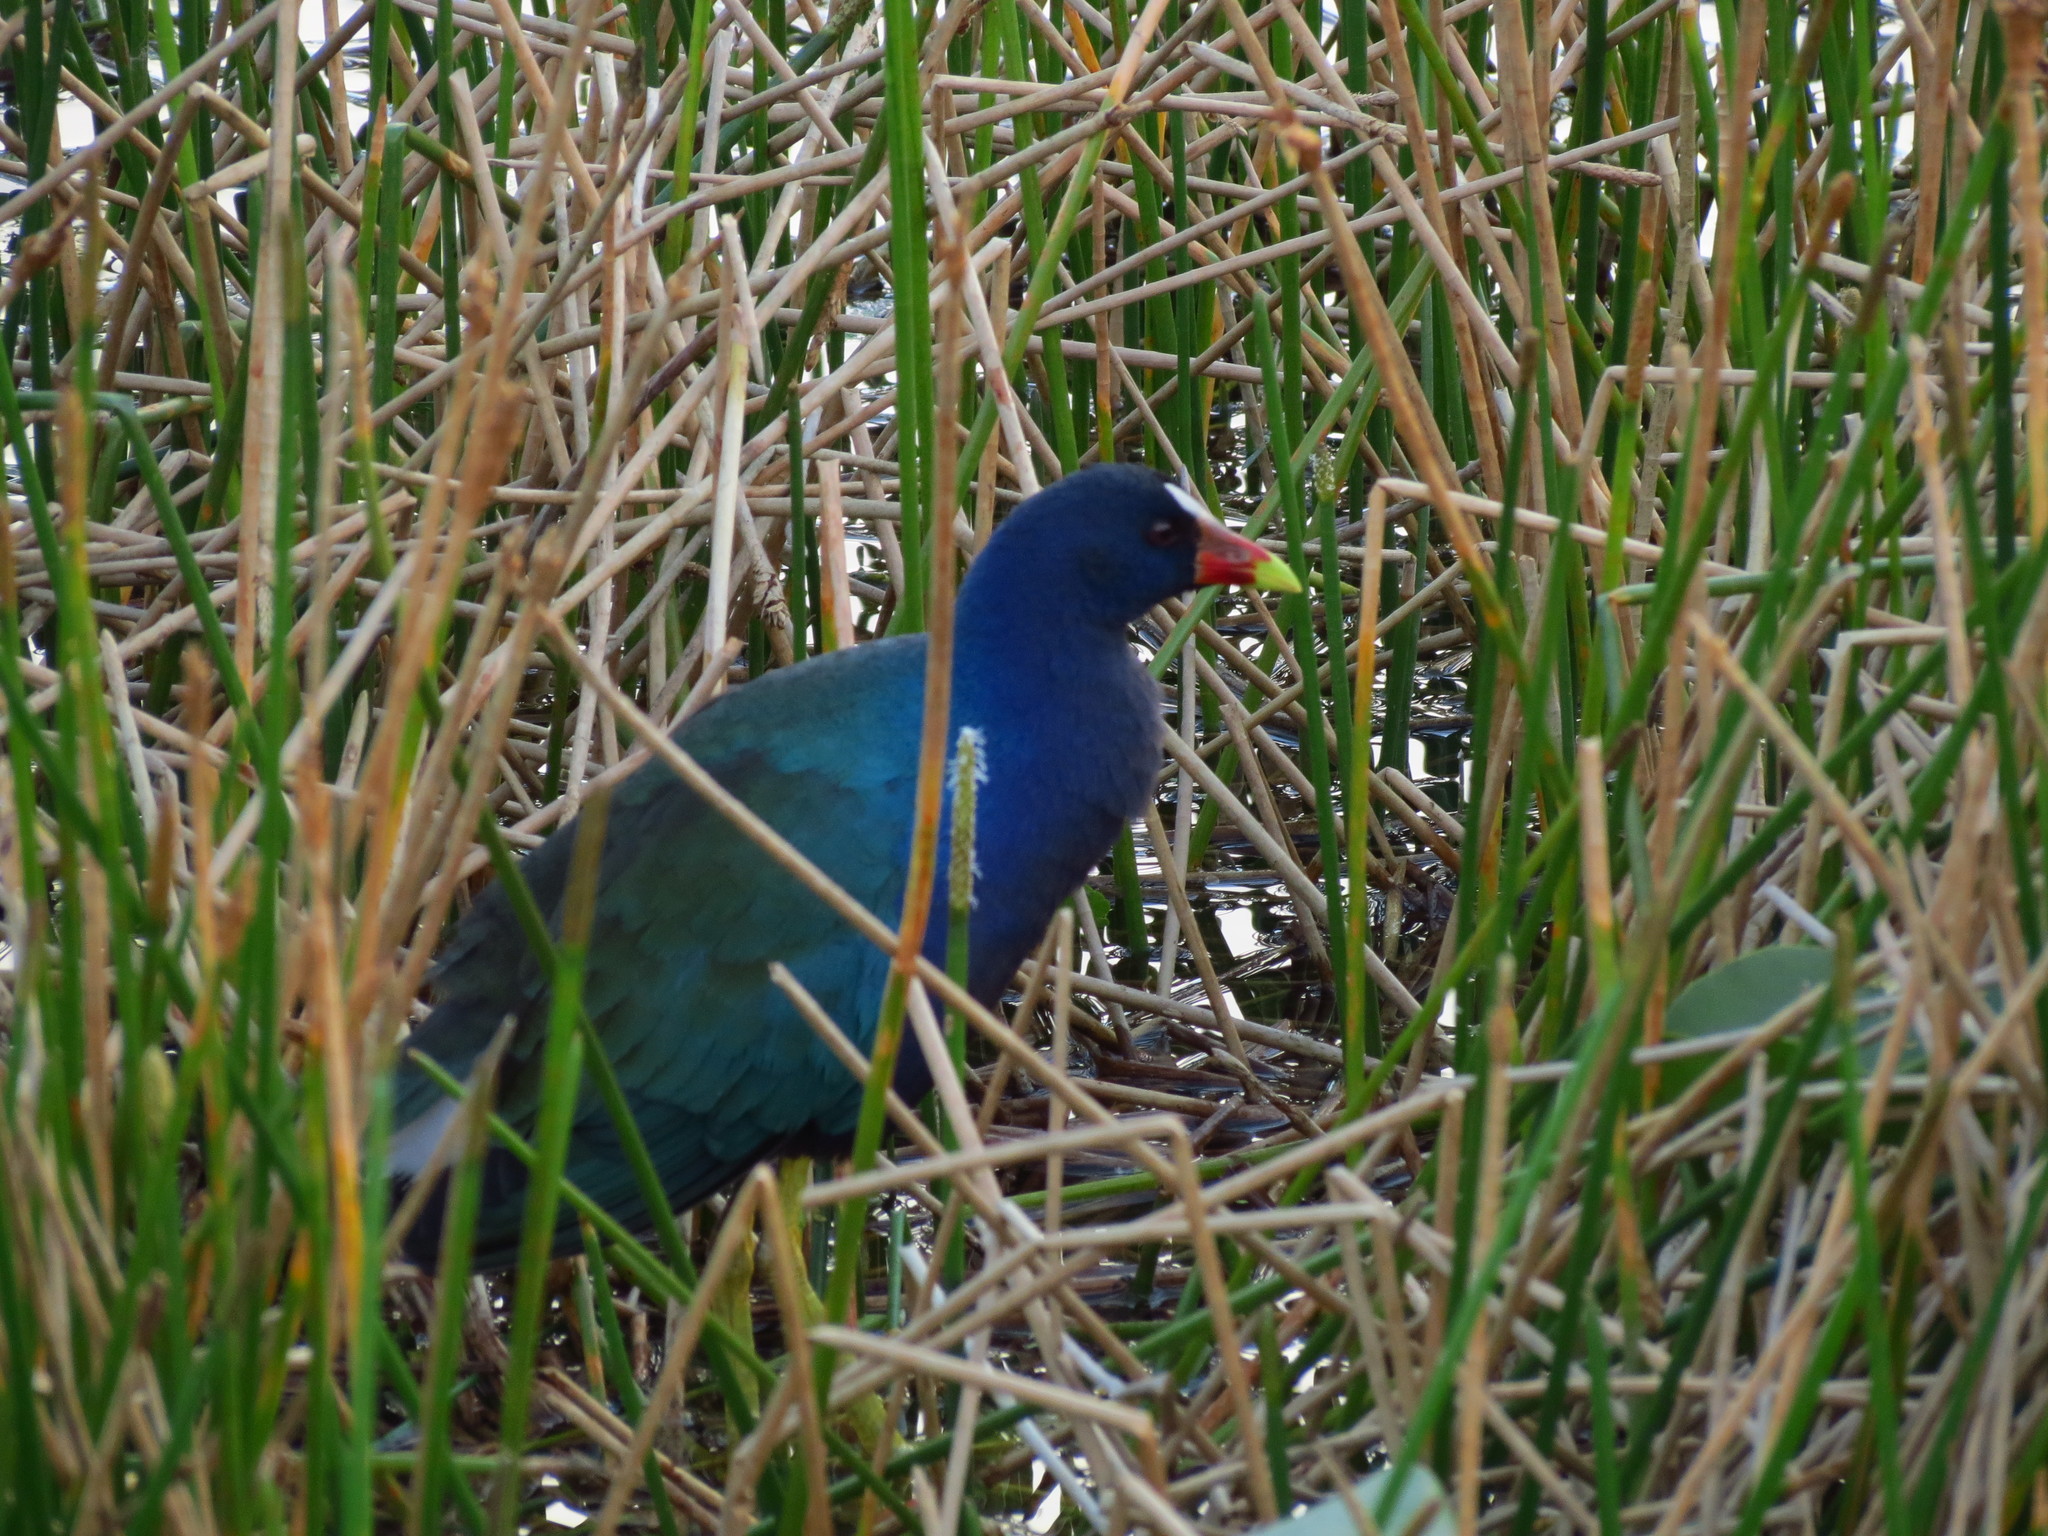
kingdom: Animalia
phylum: Chordata
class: Aves
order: Gruiformes
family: Rallidae
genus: Porphyrio
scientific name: Porphyrio martinica
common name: Purple gallinule
